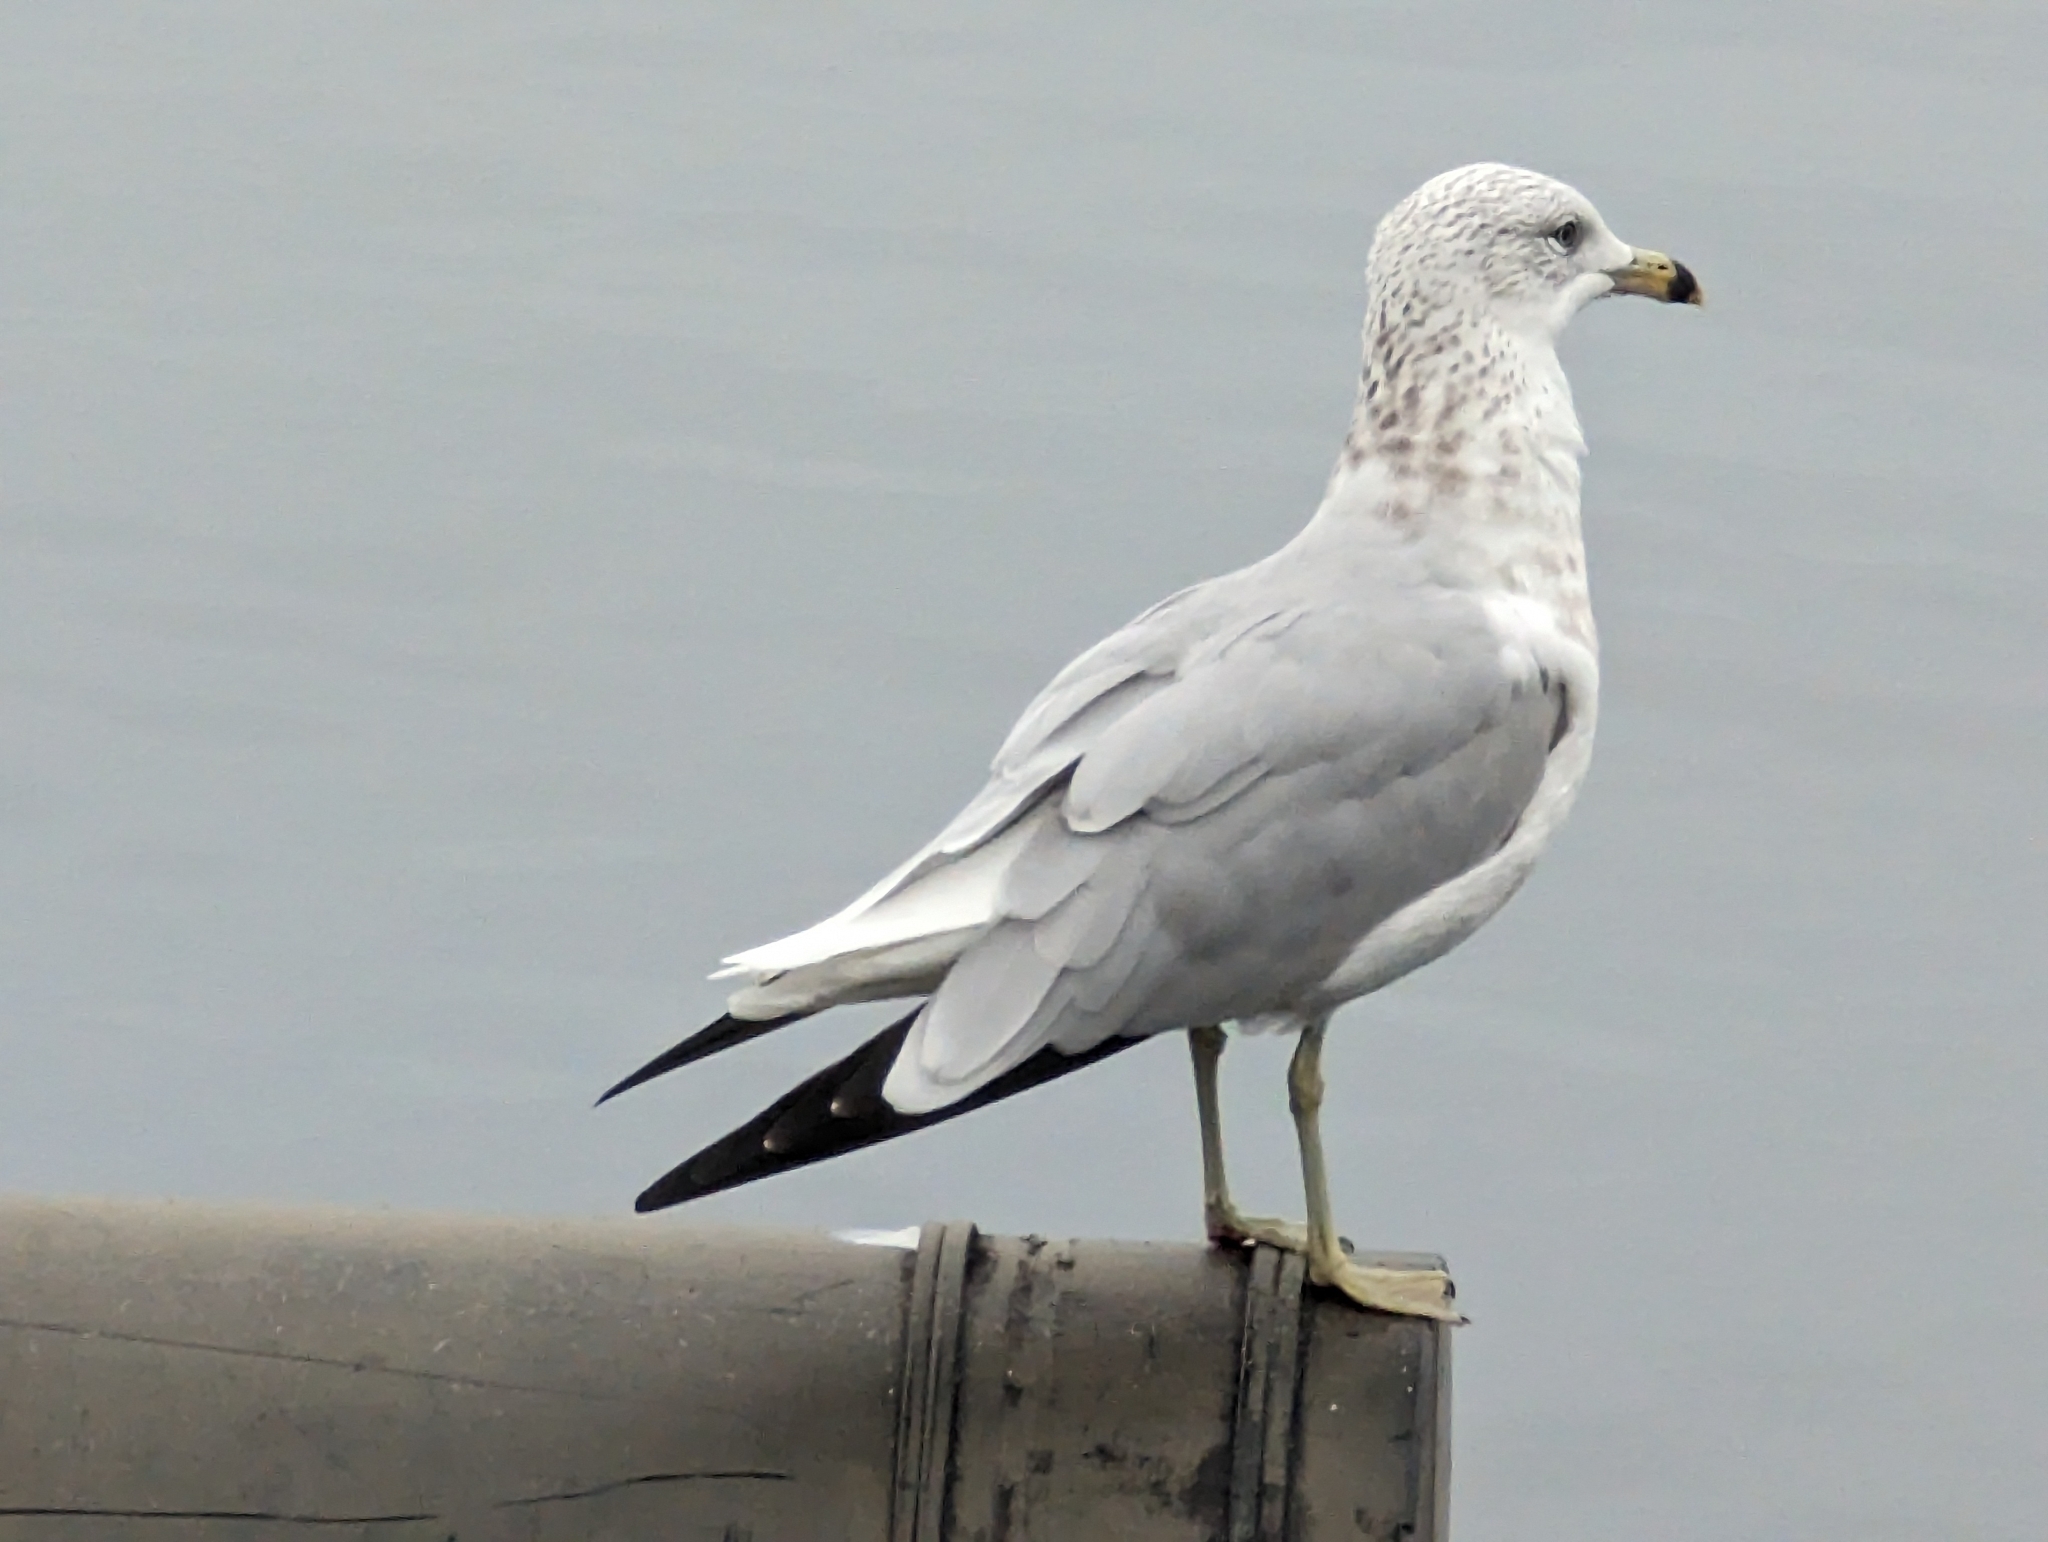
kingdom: Animalia
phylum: Chordata
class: Aves
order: Charadriiformes
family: Laridae
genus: Larus
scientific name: Larus delawarensis
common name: Ring-billed gull
